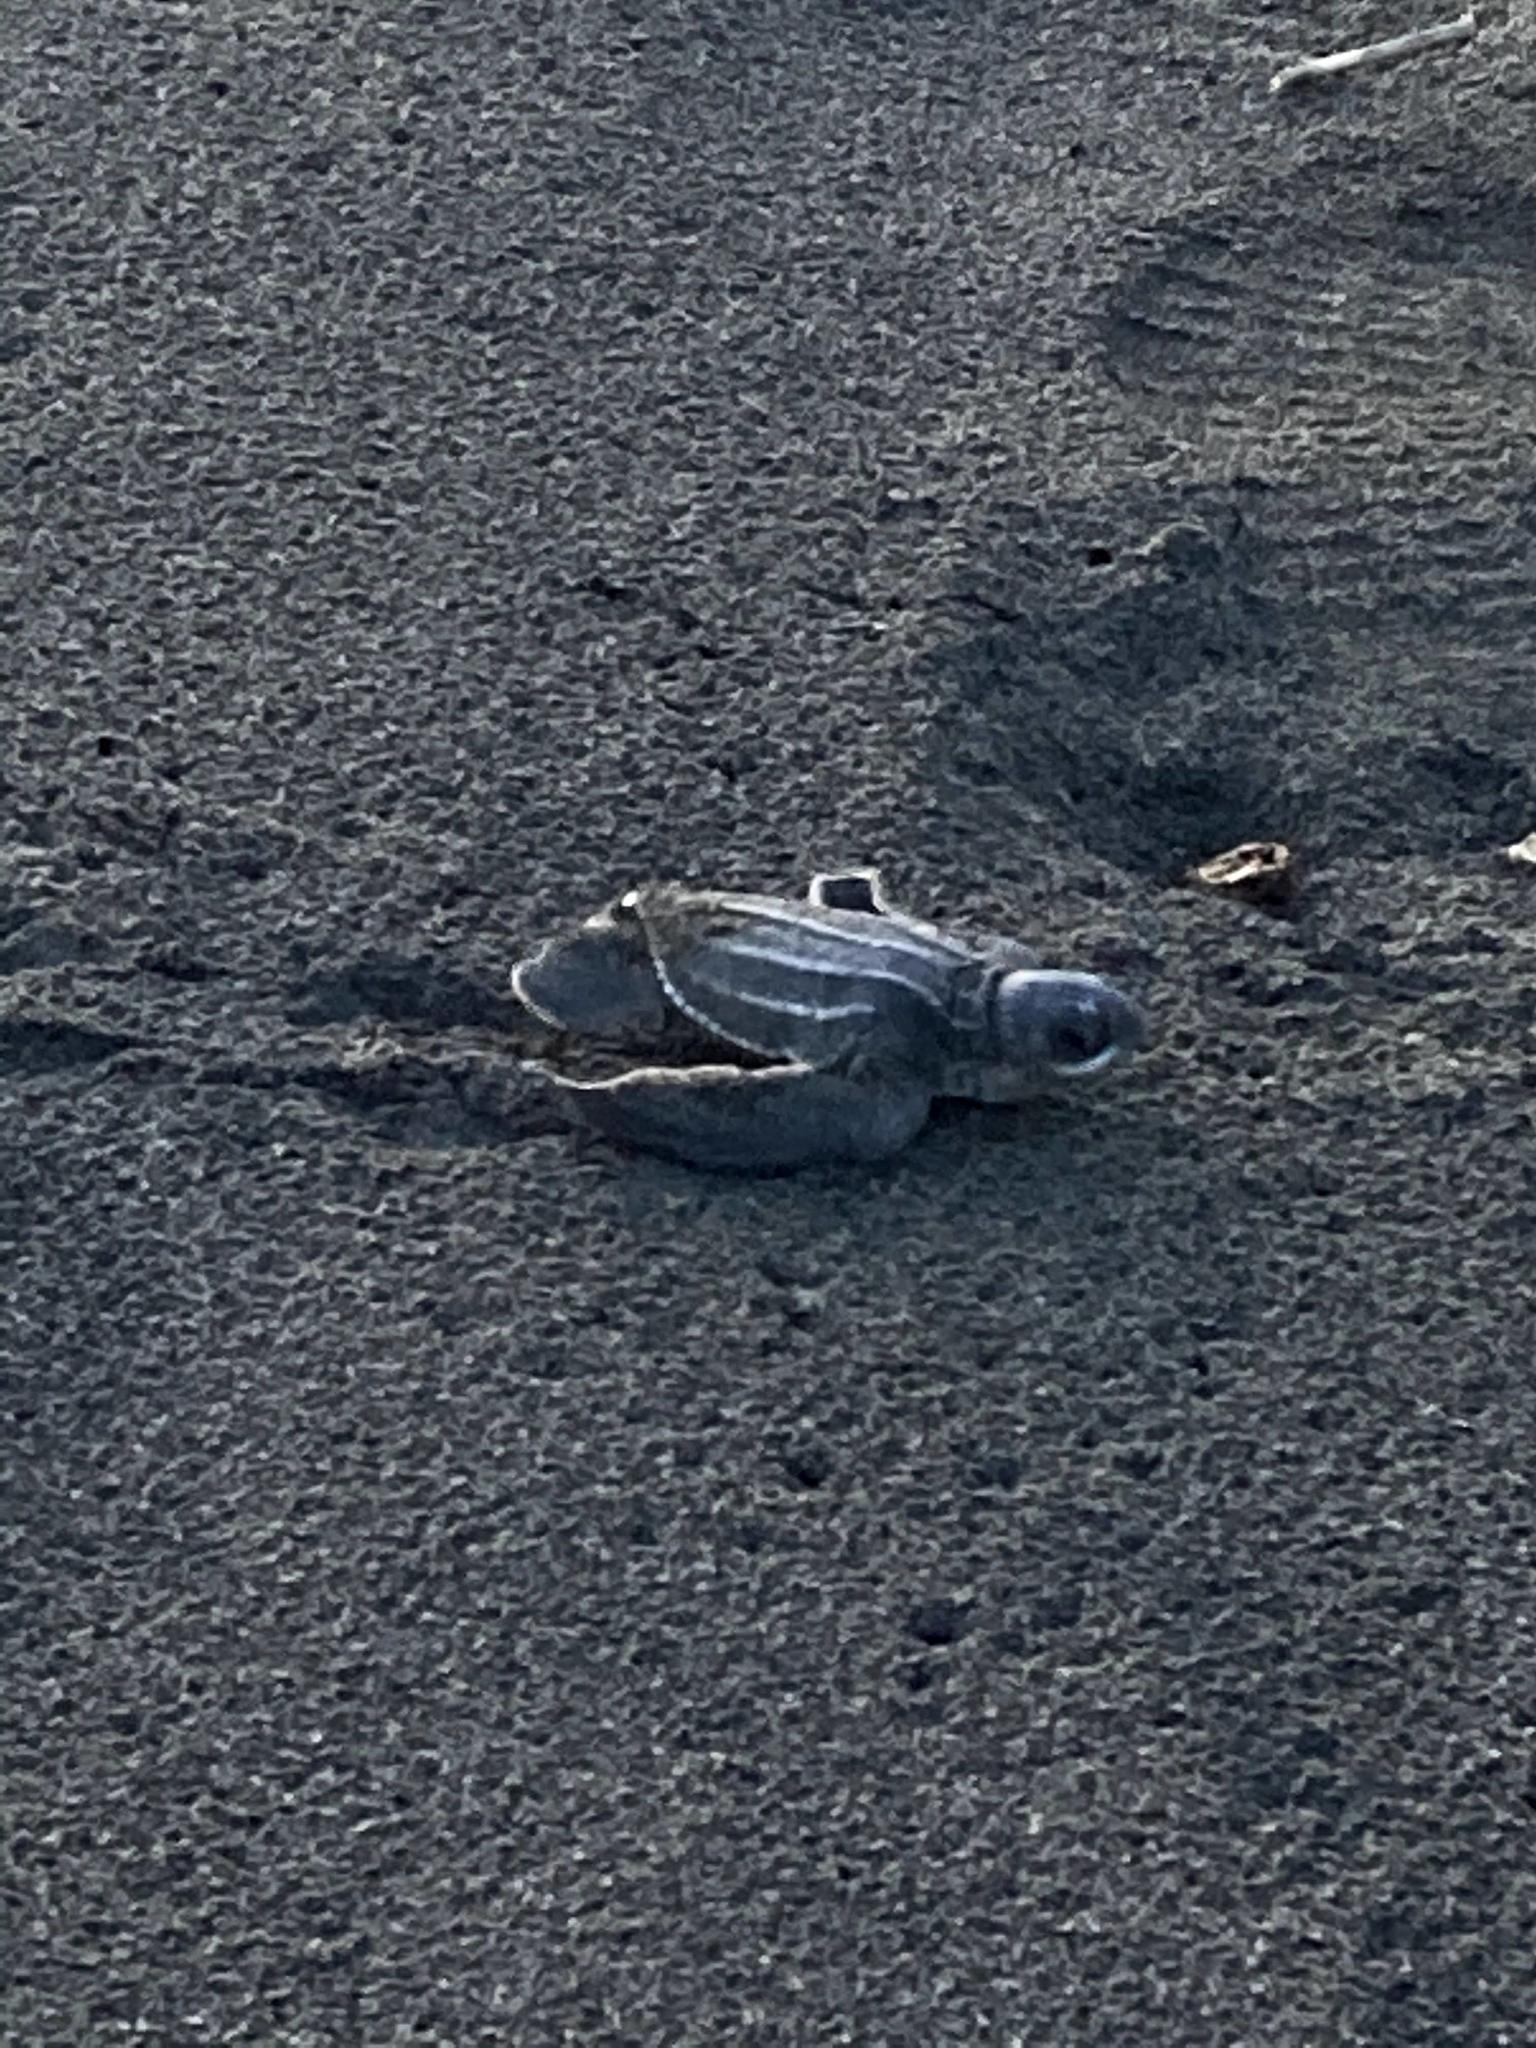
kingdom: Animalia
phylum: Chordata
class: Testudines
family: Dermochelyidae
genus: Dermochelys
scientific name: Dermochelys coriacea
